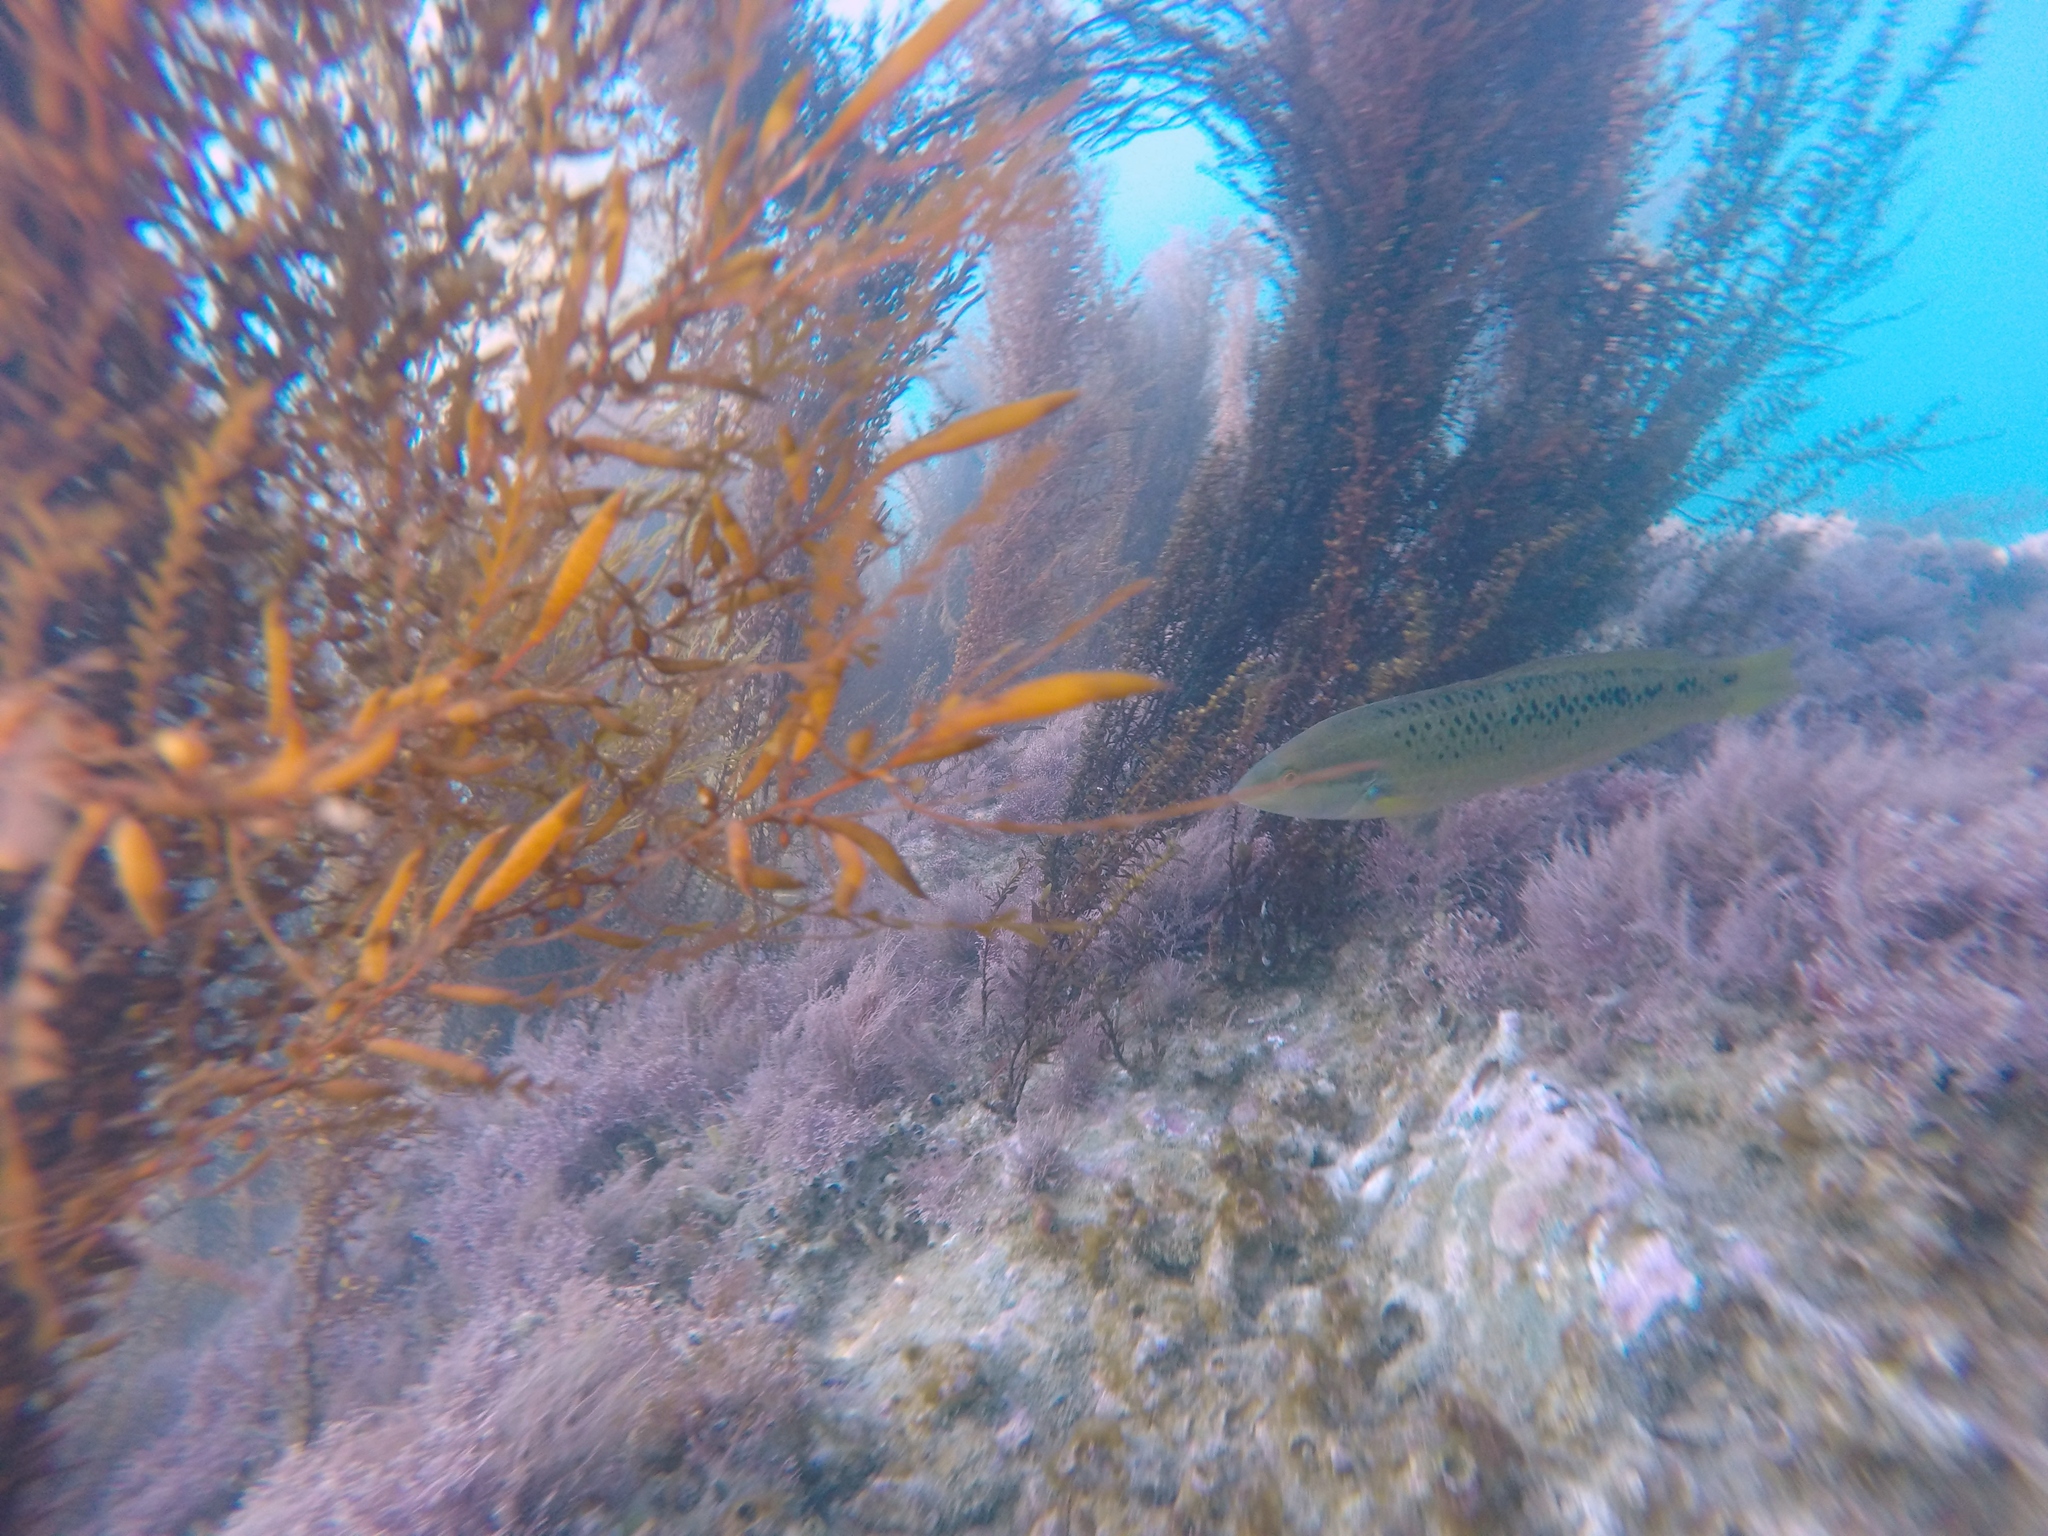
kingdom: Animalia
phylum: Chordata
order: Perciformes
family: Labridae
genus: Halichoeres
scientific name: Halichoeres semicinctus
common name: Rock wrasse
